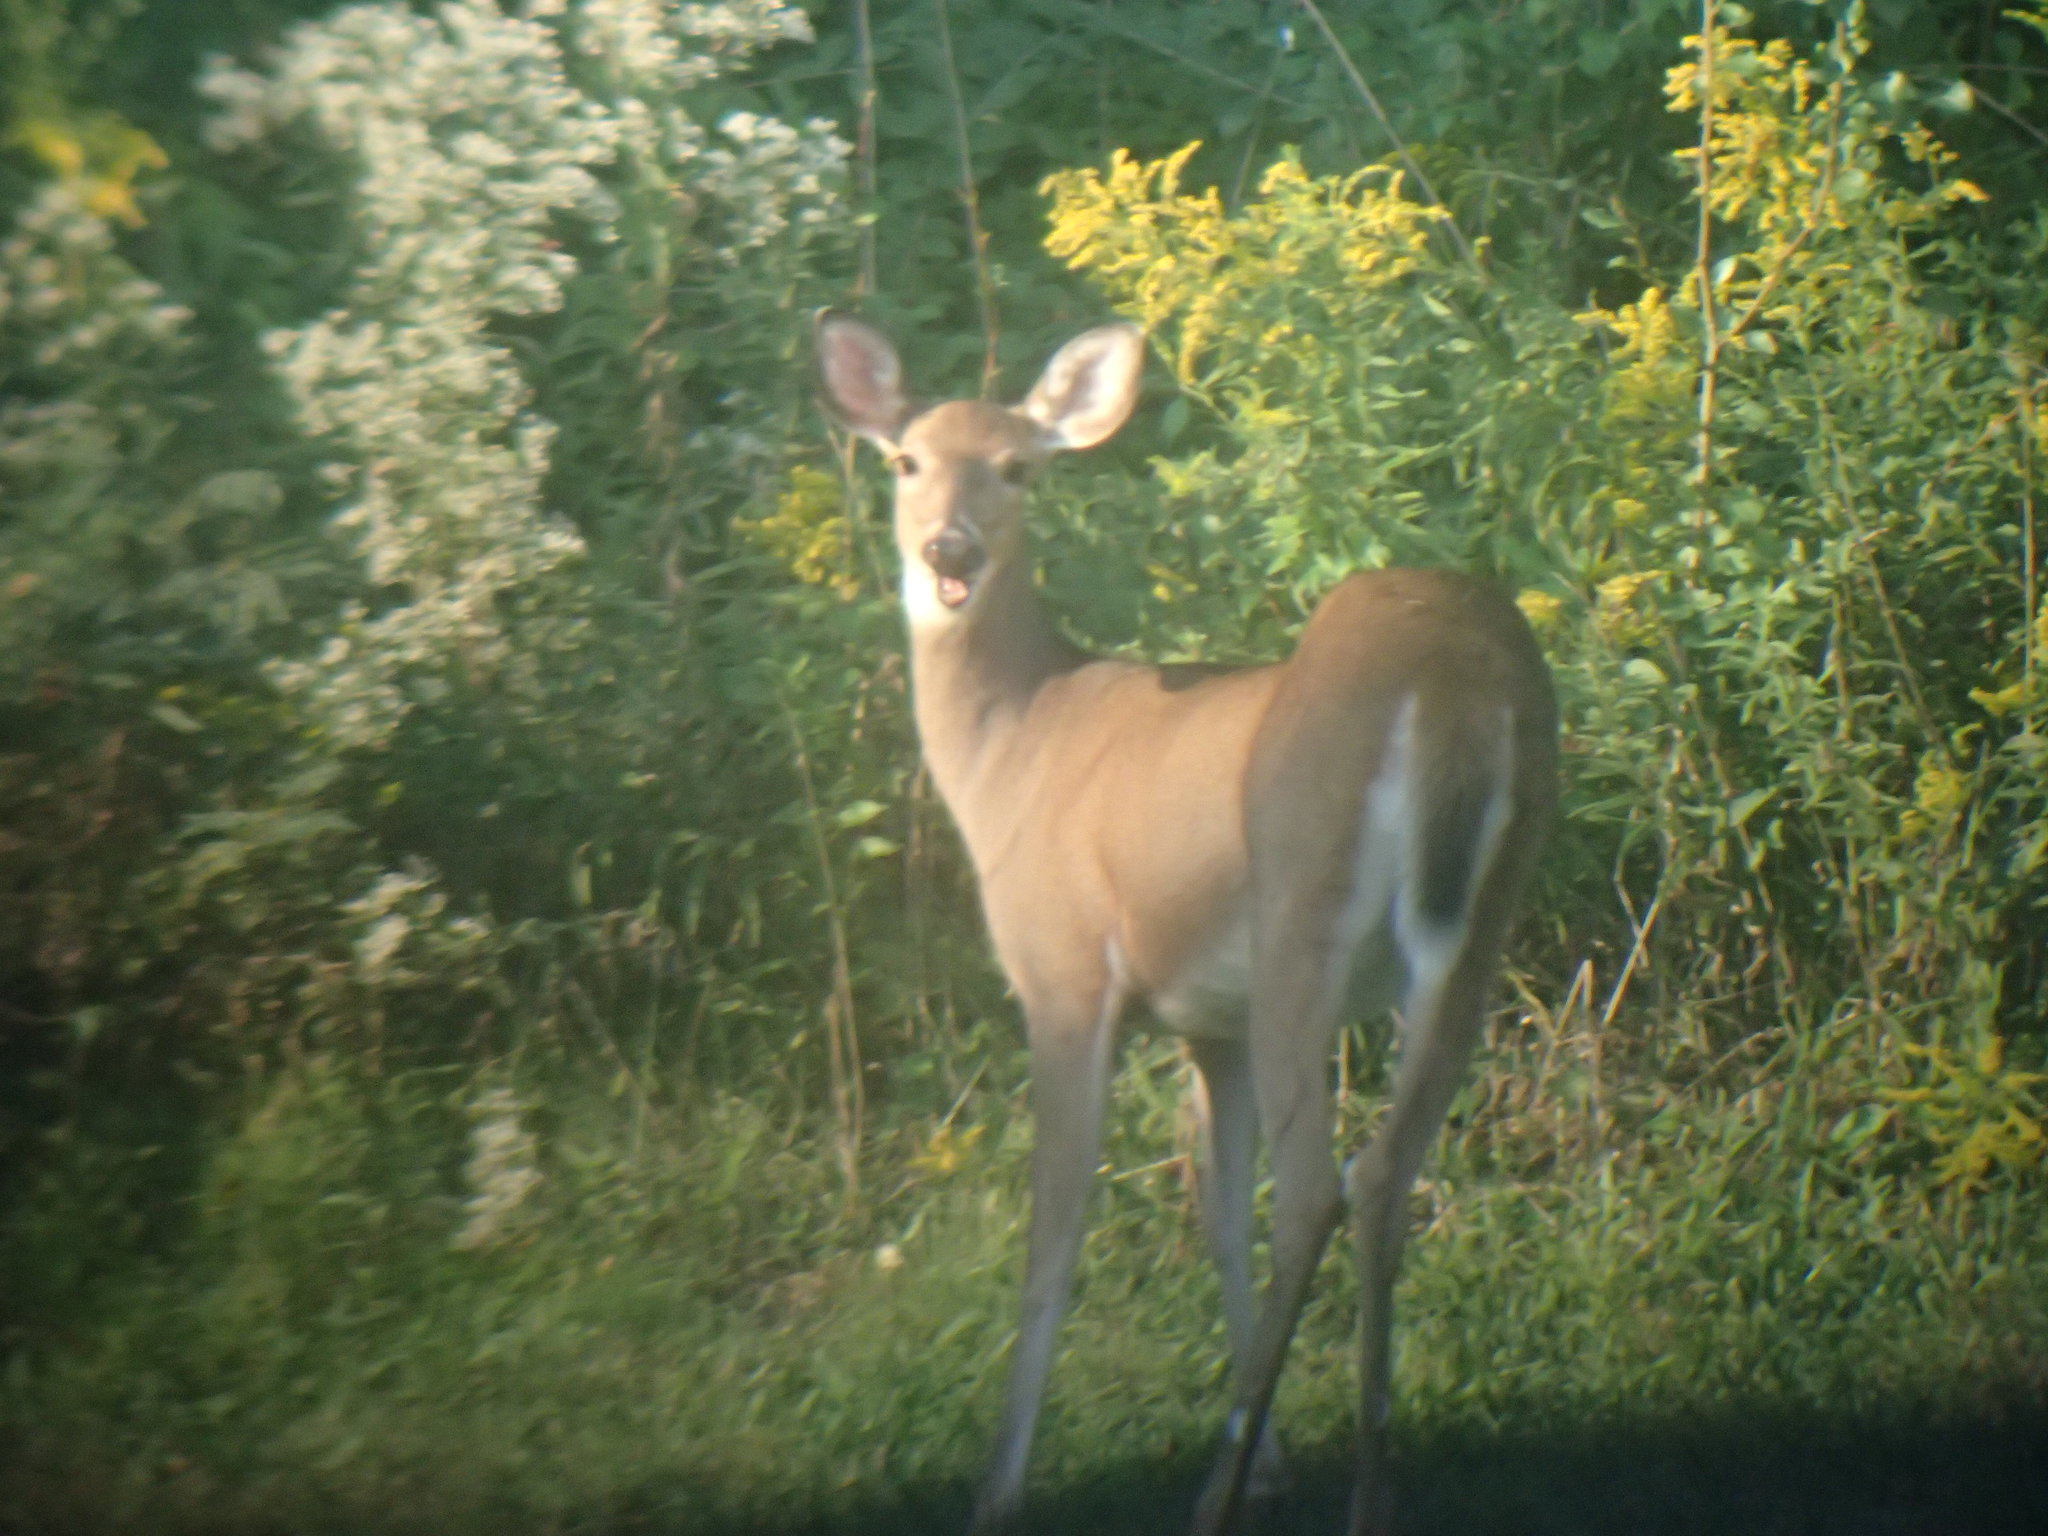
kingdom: Animalia
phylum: Chordata
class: Mammalia
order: Artiodactyla
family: Cervidae
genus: Odocoileus
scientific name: Odocoileus virginianus
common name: White-tailed deer
